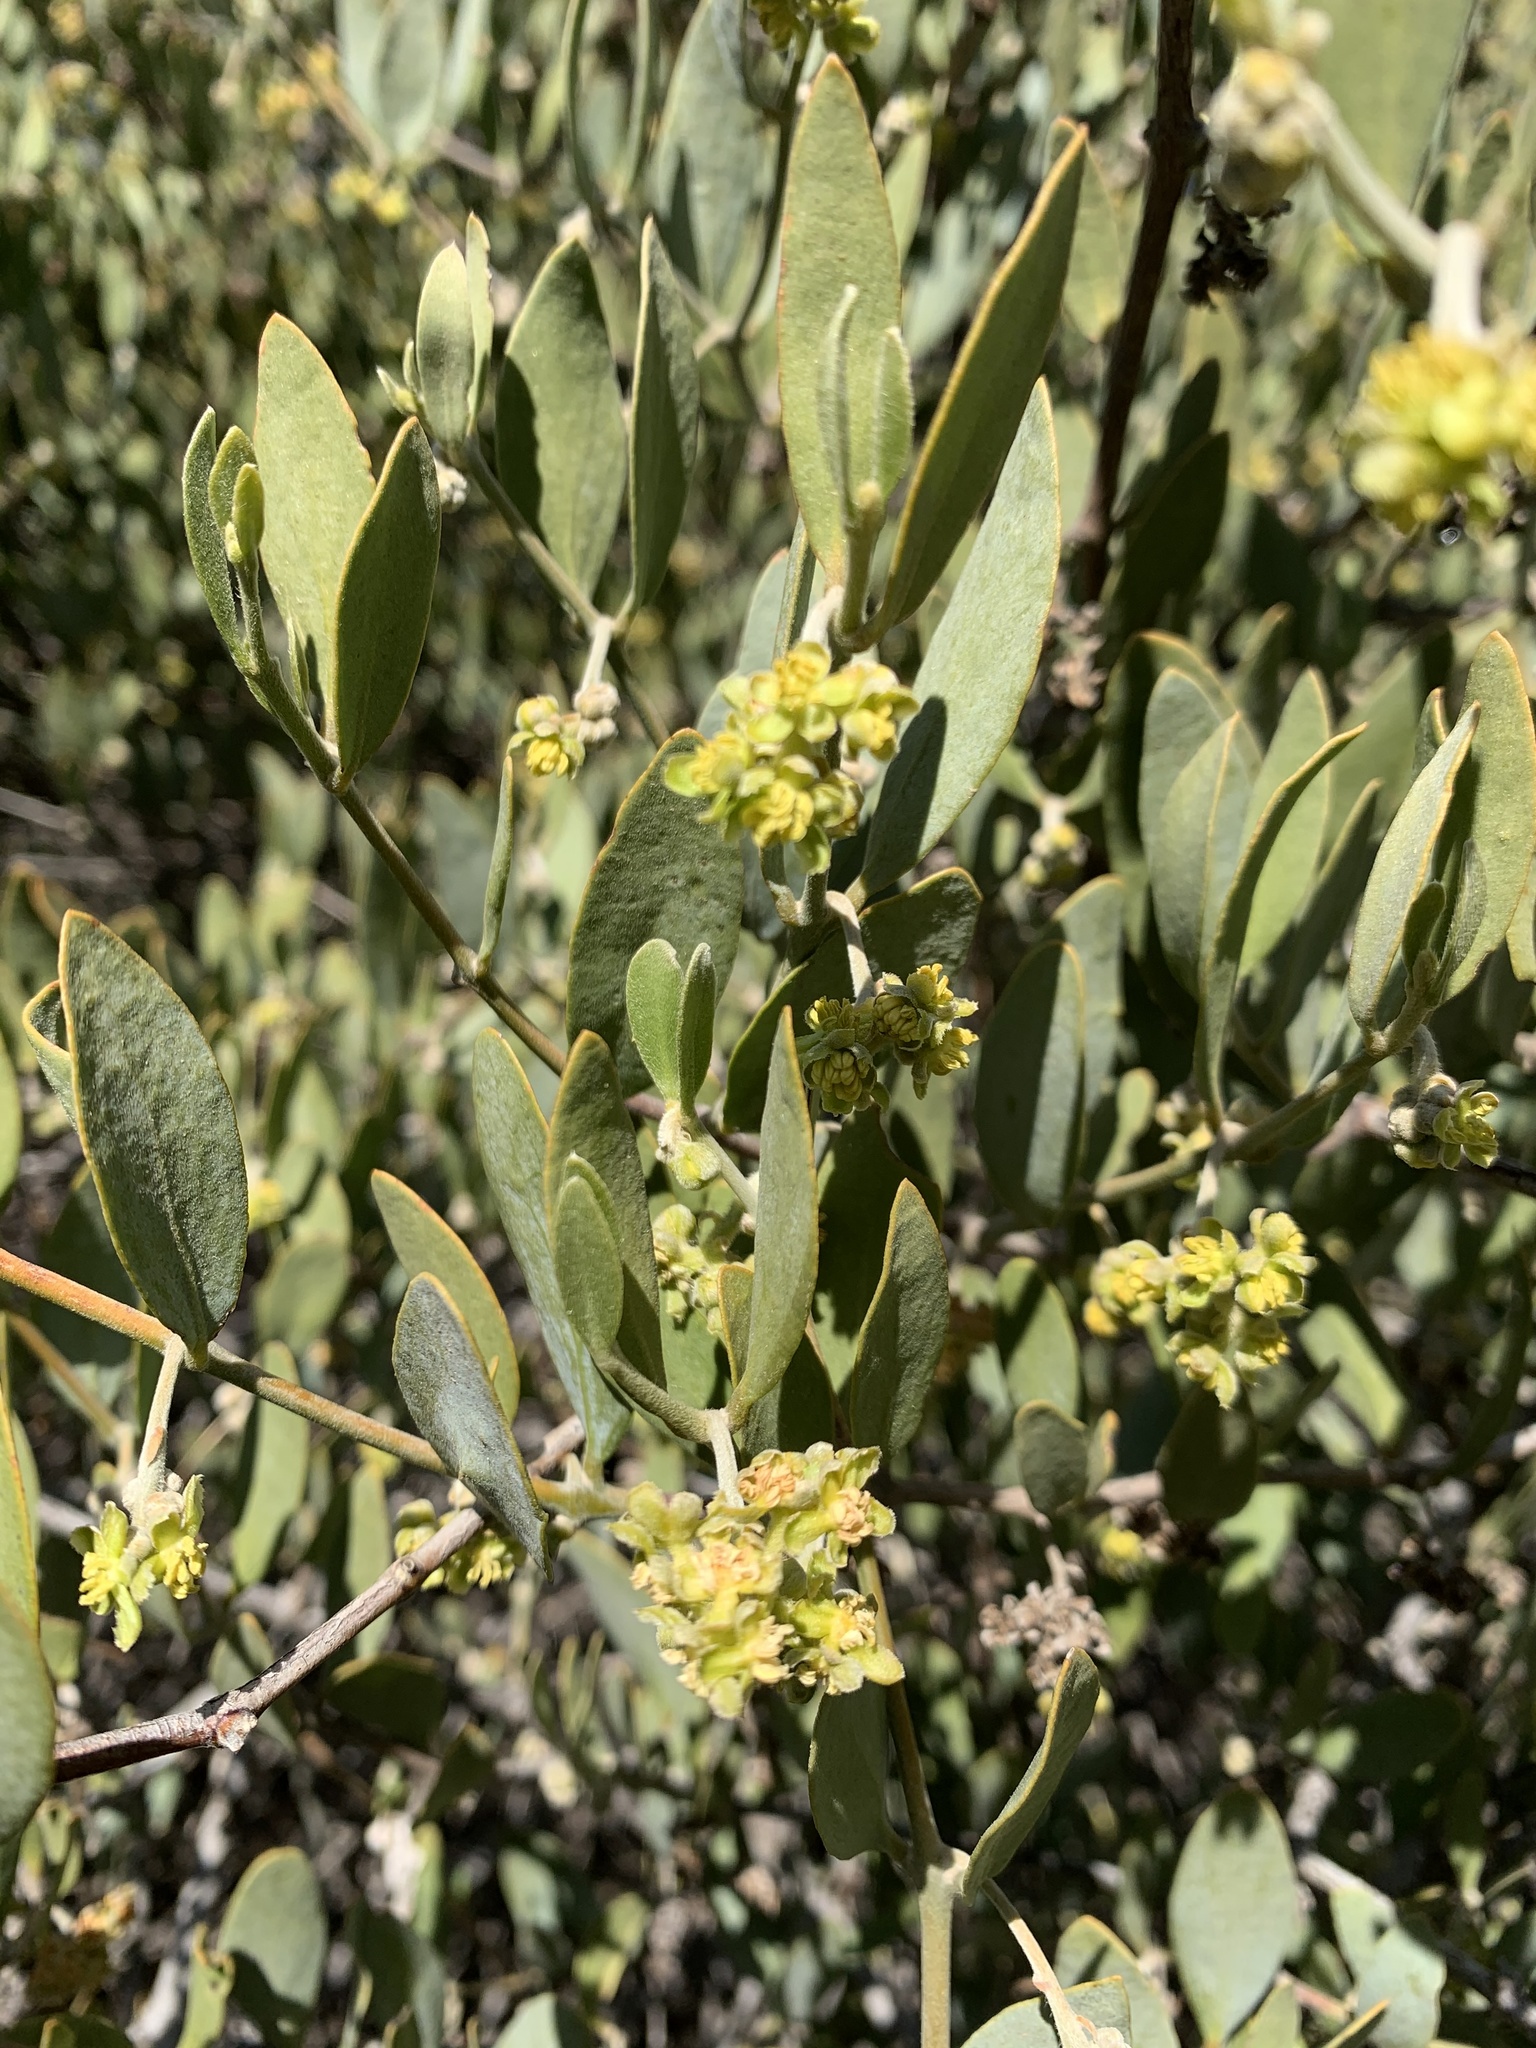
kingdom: Plantae
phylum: Tracheophyta
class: Magnoliopsida
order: Caryophyllales
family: Simmondsiaceae
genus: Simmondsia
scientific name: Simmondsia chinensis
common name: Jojoba
